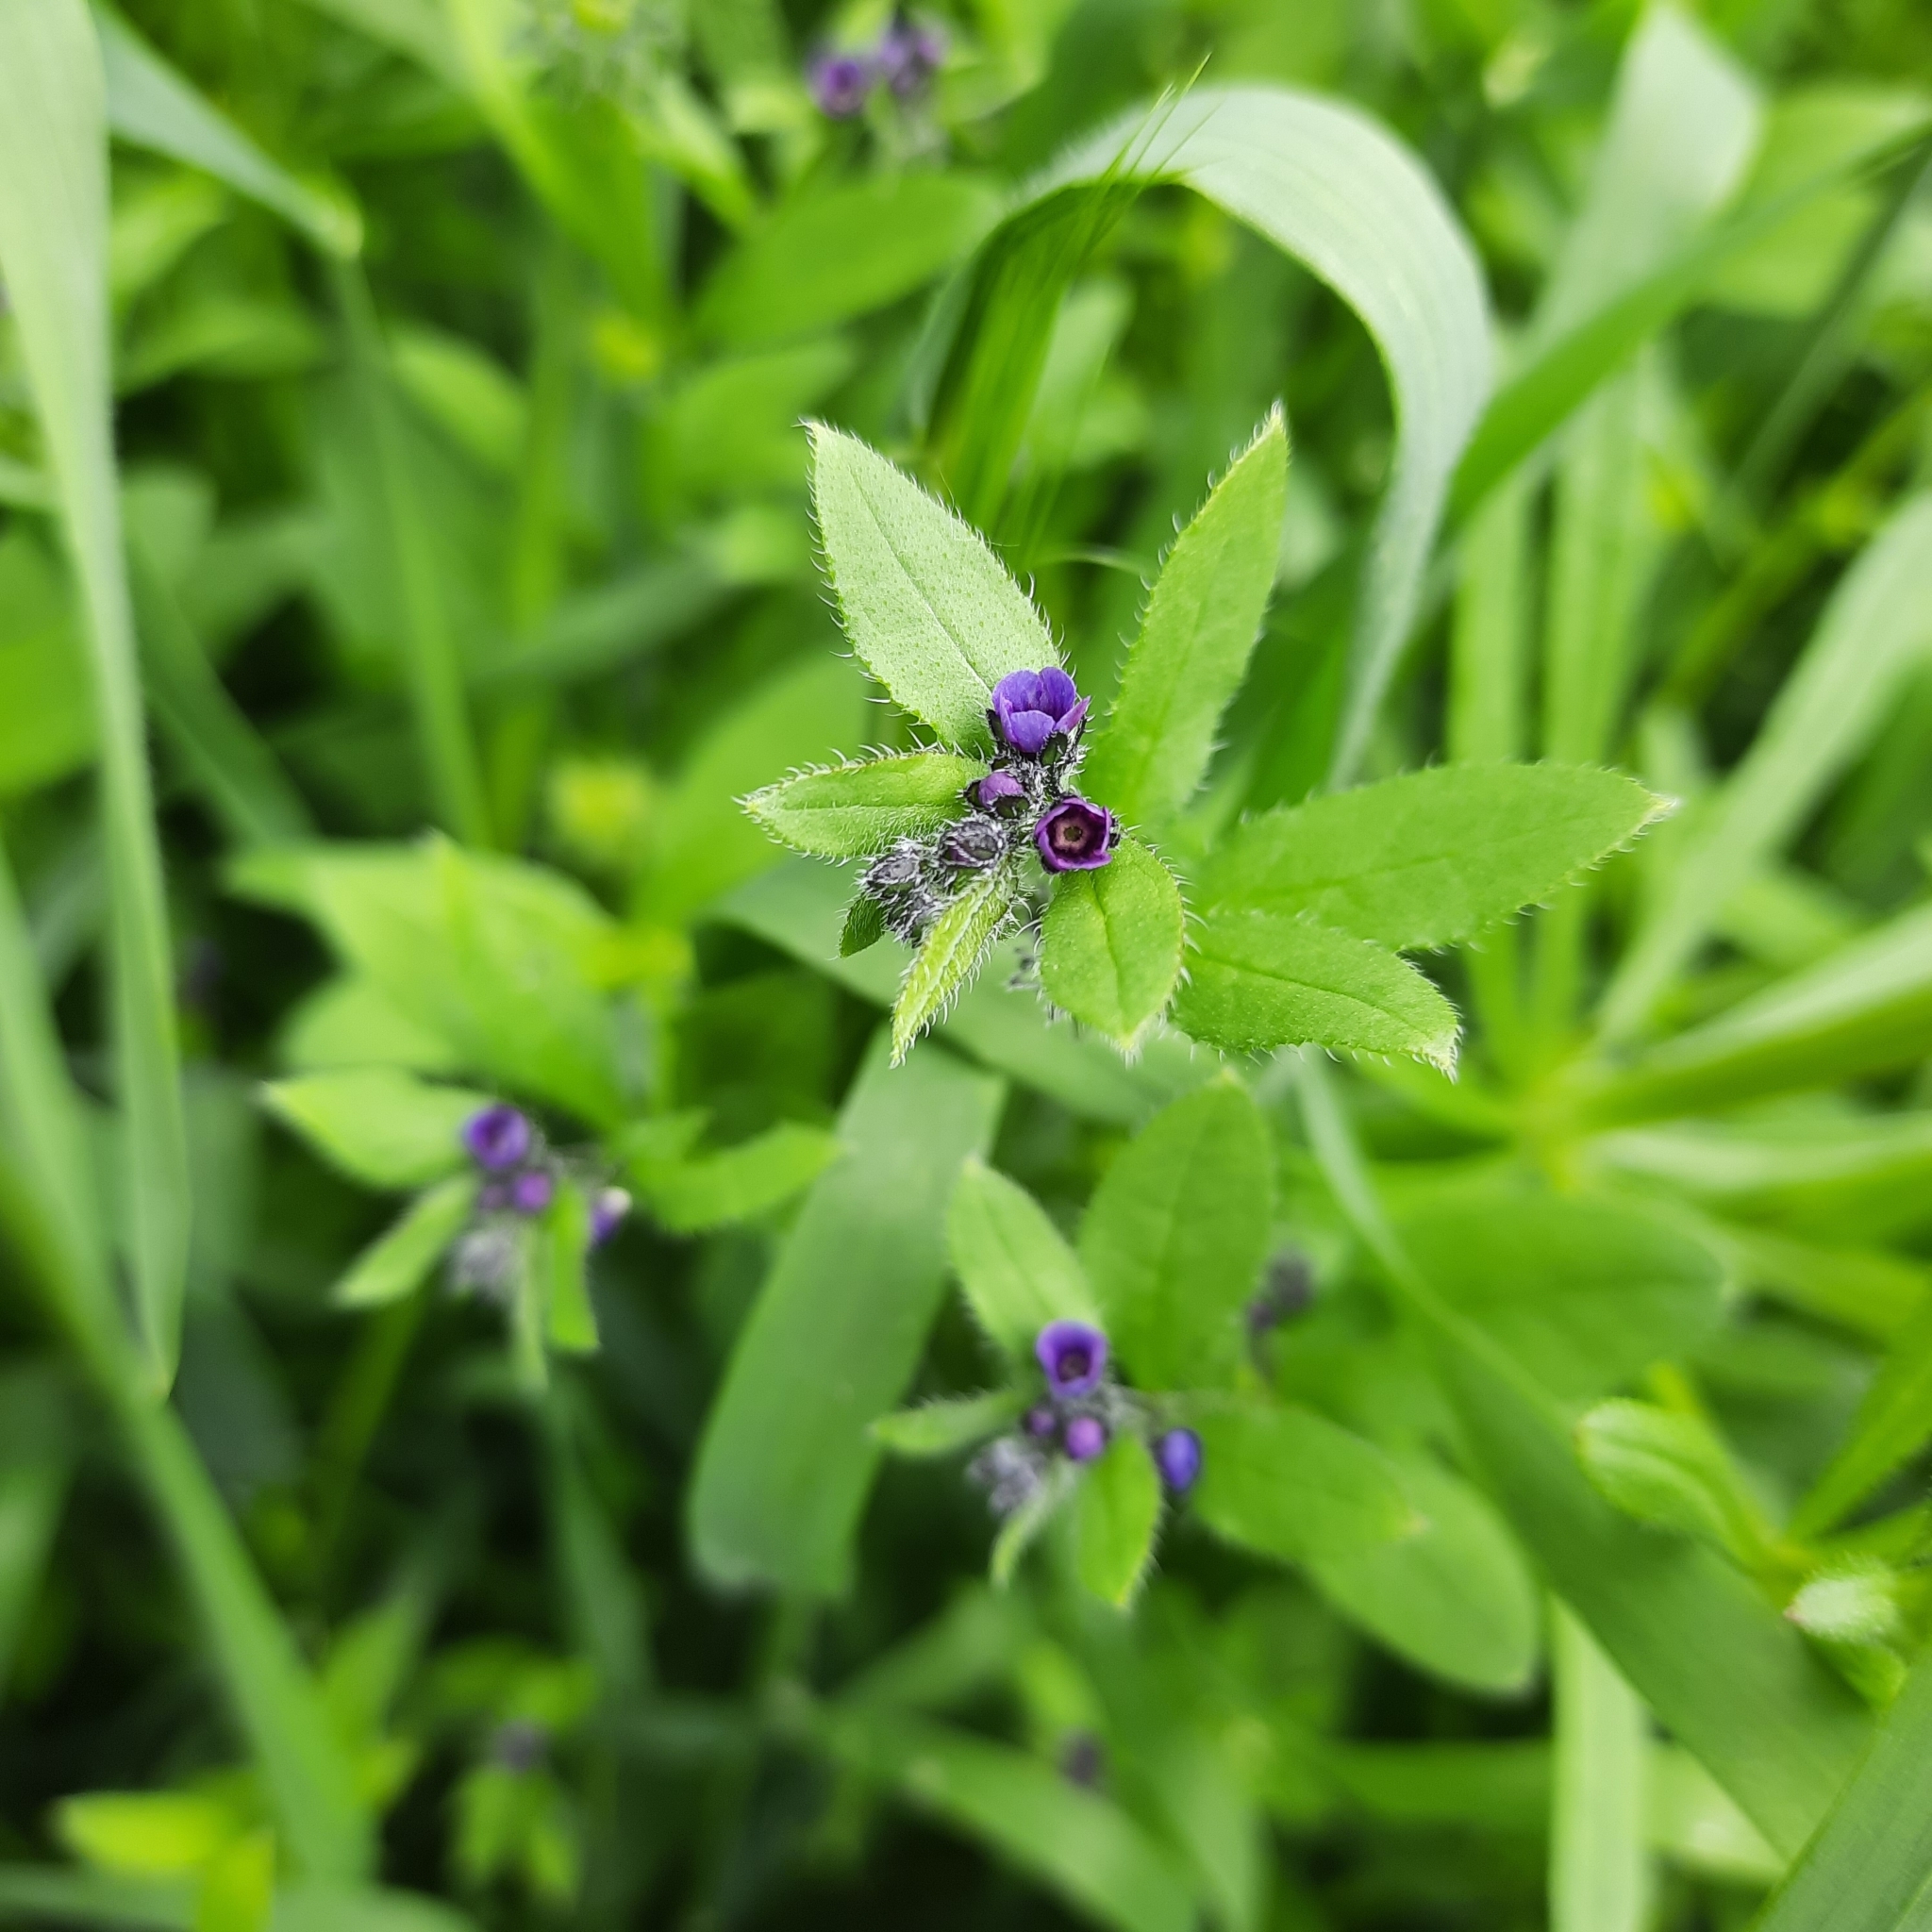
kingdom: Plantae
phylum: Tracheophyta
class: Magnoliopsida
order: Boraginales
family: Boraginaceae
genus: Asperugo
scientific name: Asperugo procumbens
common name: Madwort
